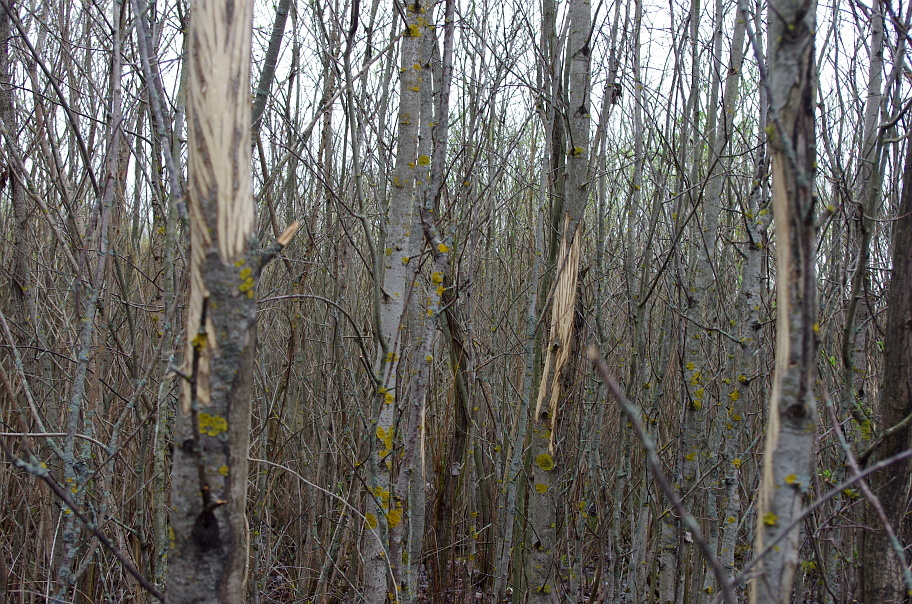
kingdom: Plantae
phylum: Tracheophyta
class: Magnoliopsida
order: Malpighiales
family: Salicaceae
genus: Populus
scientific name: Populus tremula
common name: European aspen
